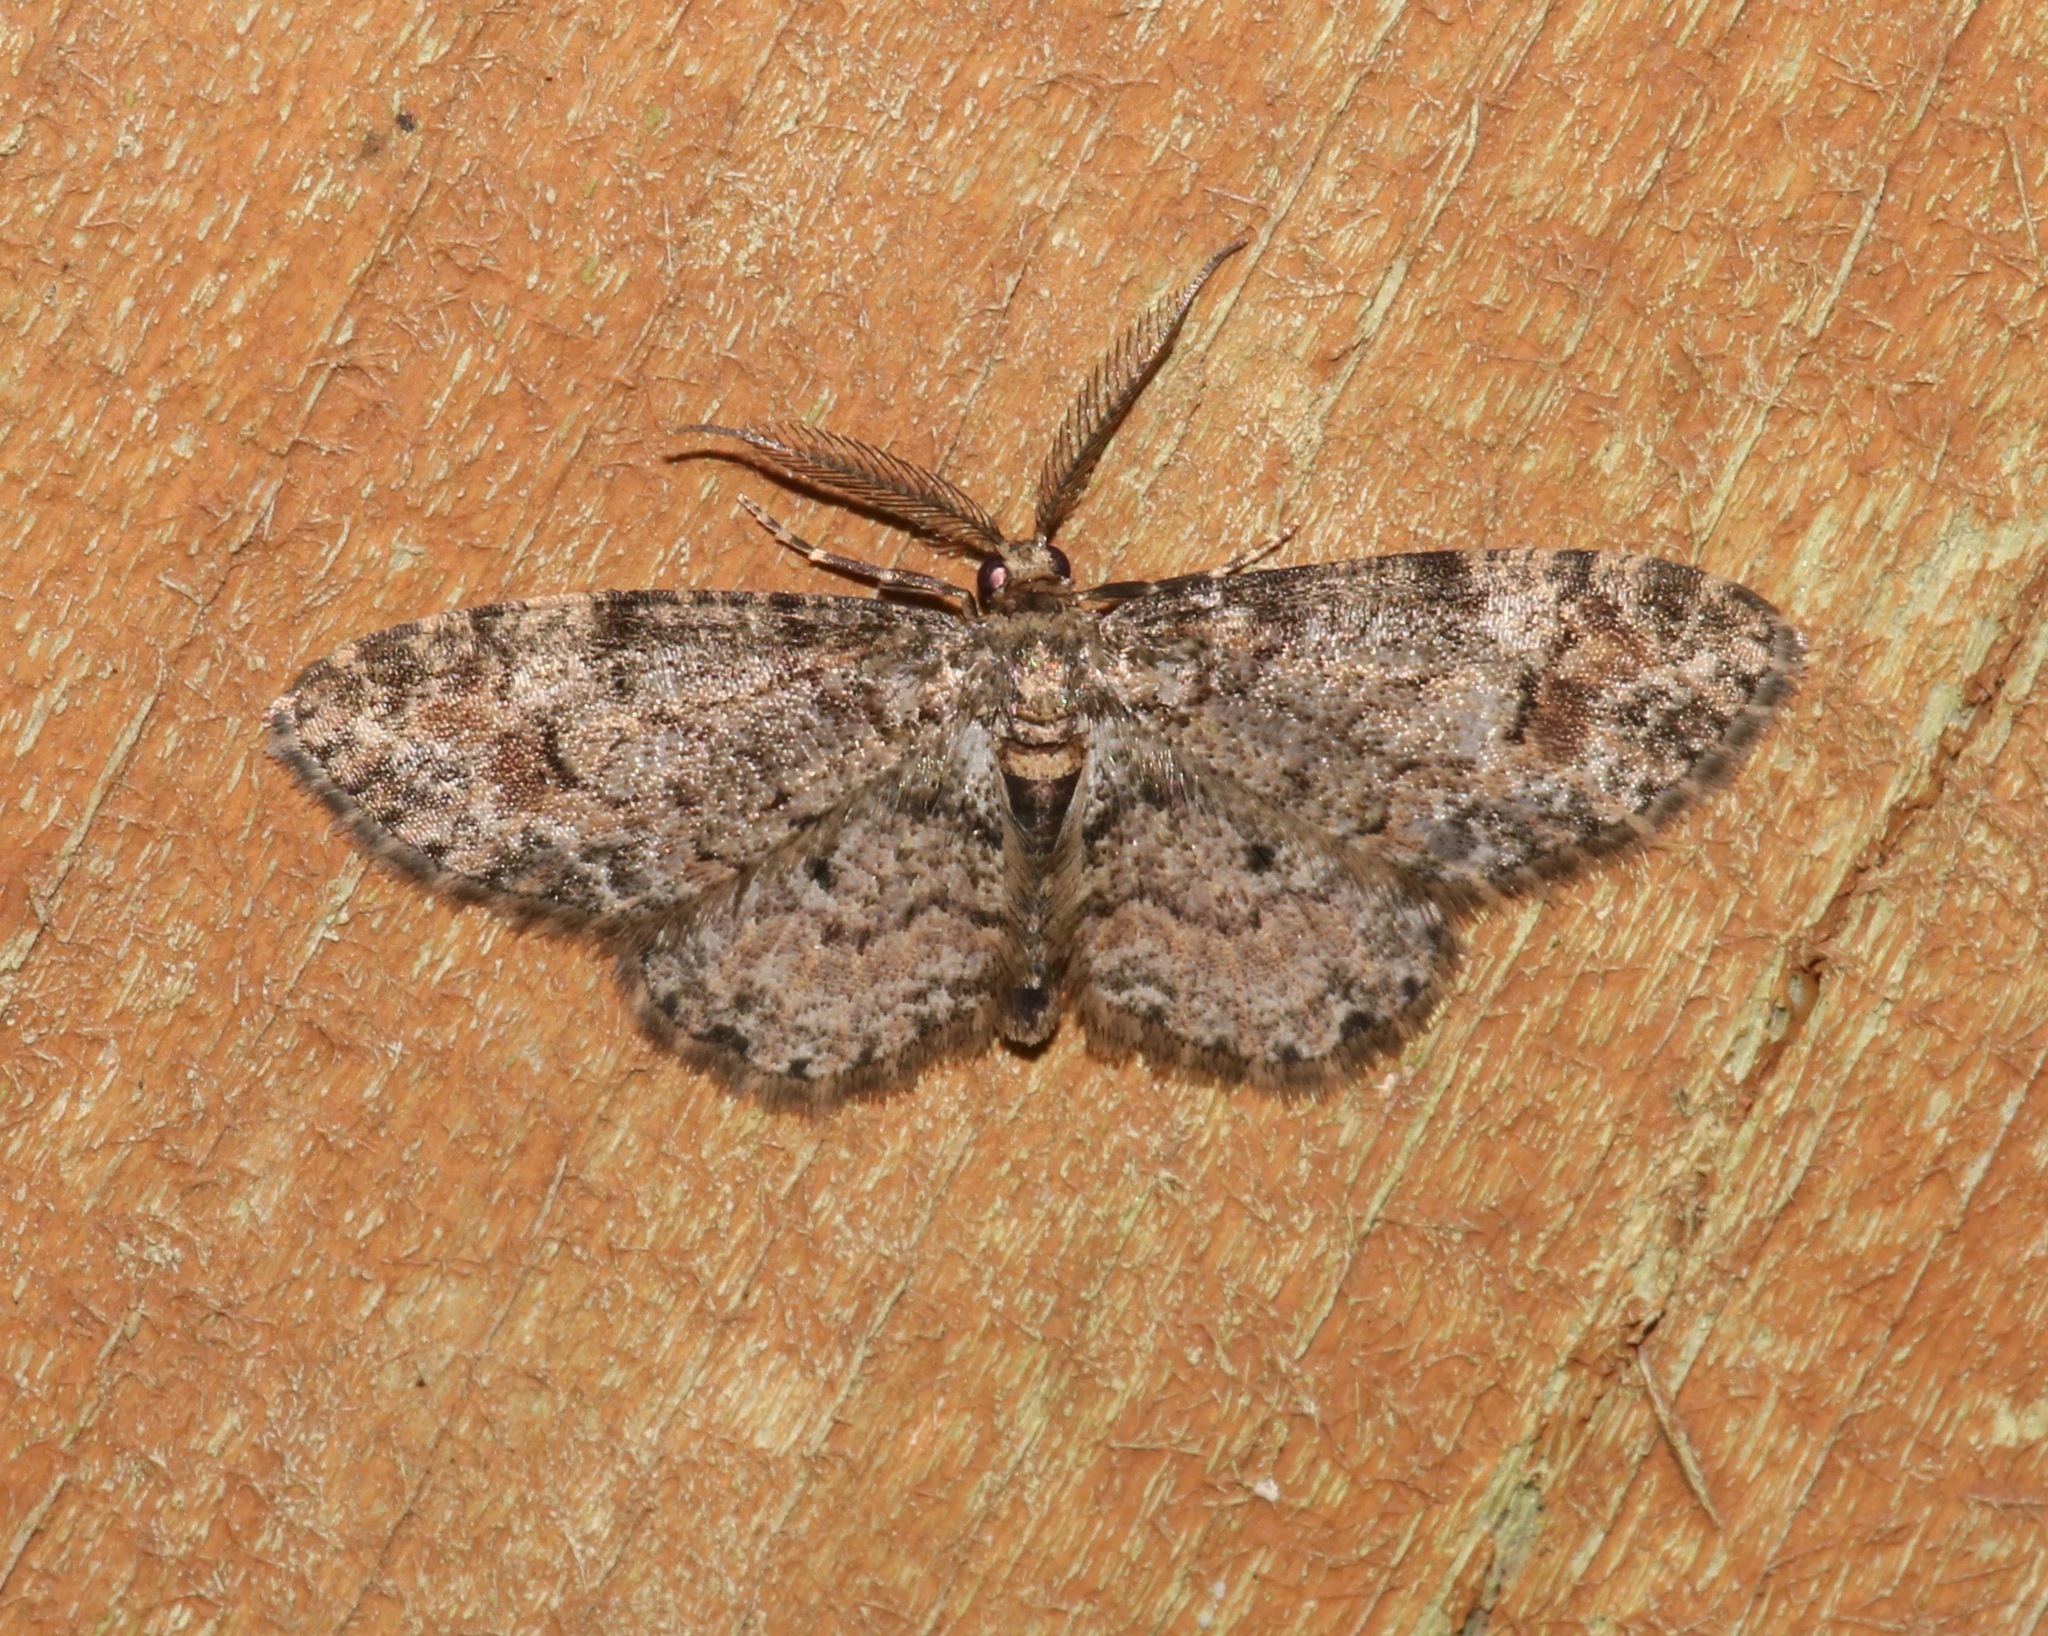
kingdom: Animalia
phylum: Arthropoda
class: Insecta
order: Lepidoptera
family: Geometridae
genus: Glenoides
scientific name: Glenoides texanaria
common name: Texas gray
